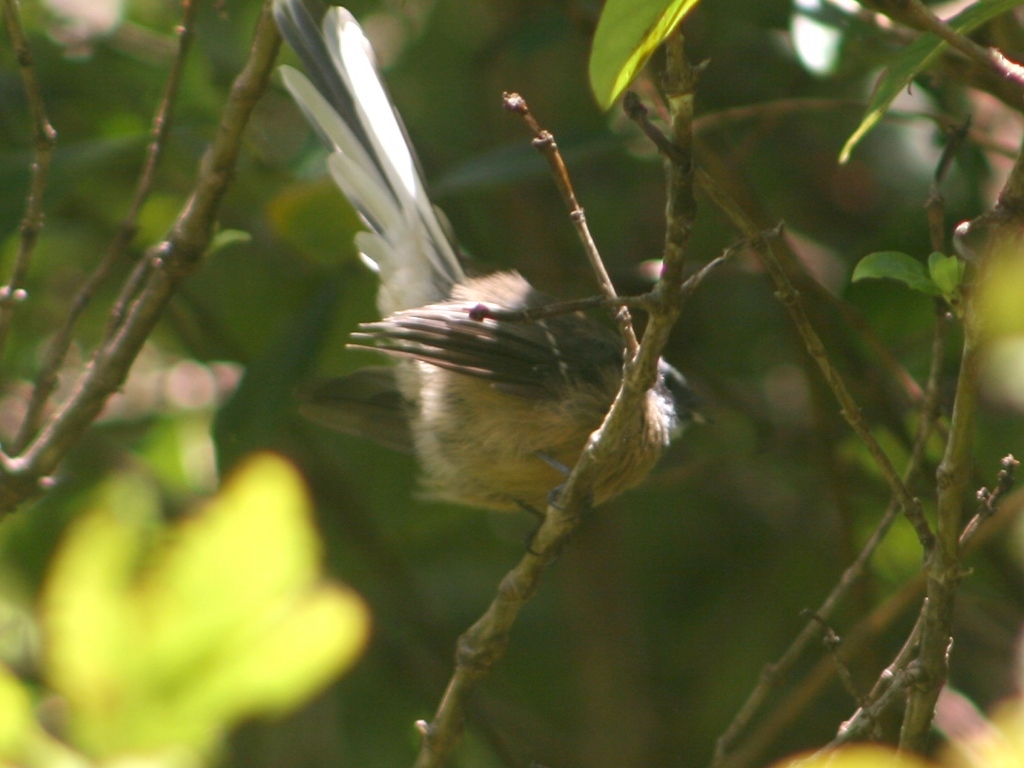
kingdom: Animalia
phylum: Chordata
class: Aves
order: Passeriformes
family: Rhipiduridae
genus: Rhipidura
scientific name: Rhipidura fuliginosa
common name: New zealand fantail
